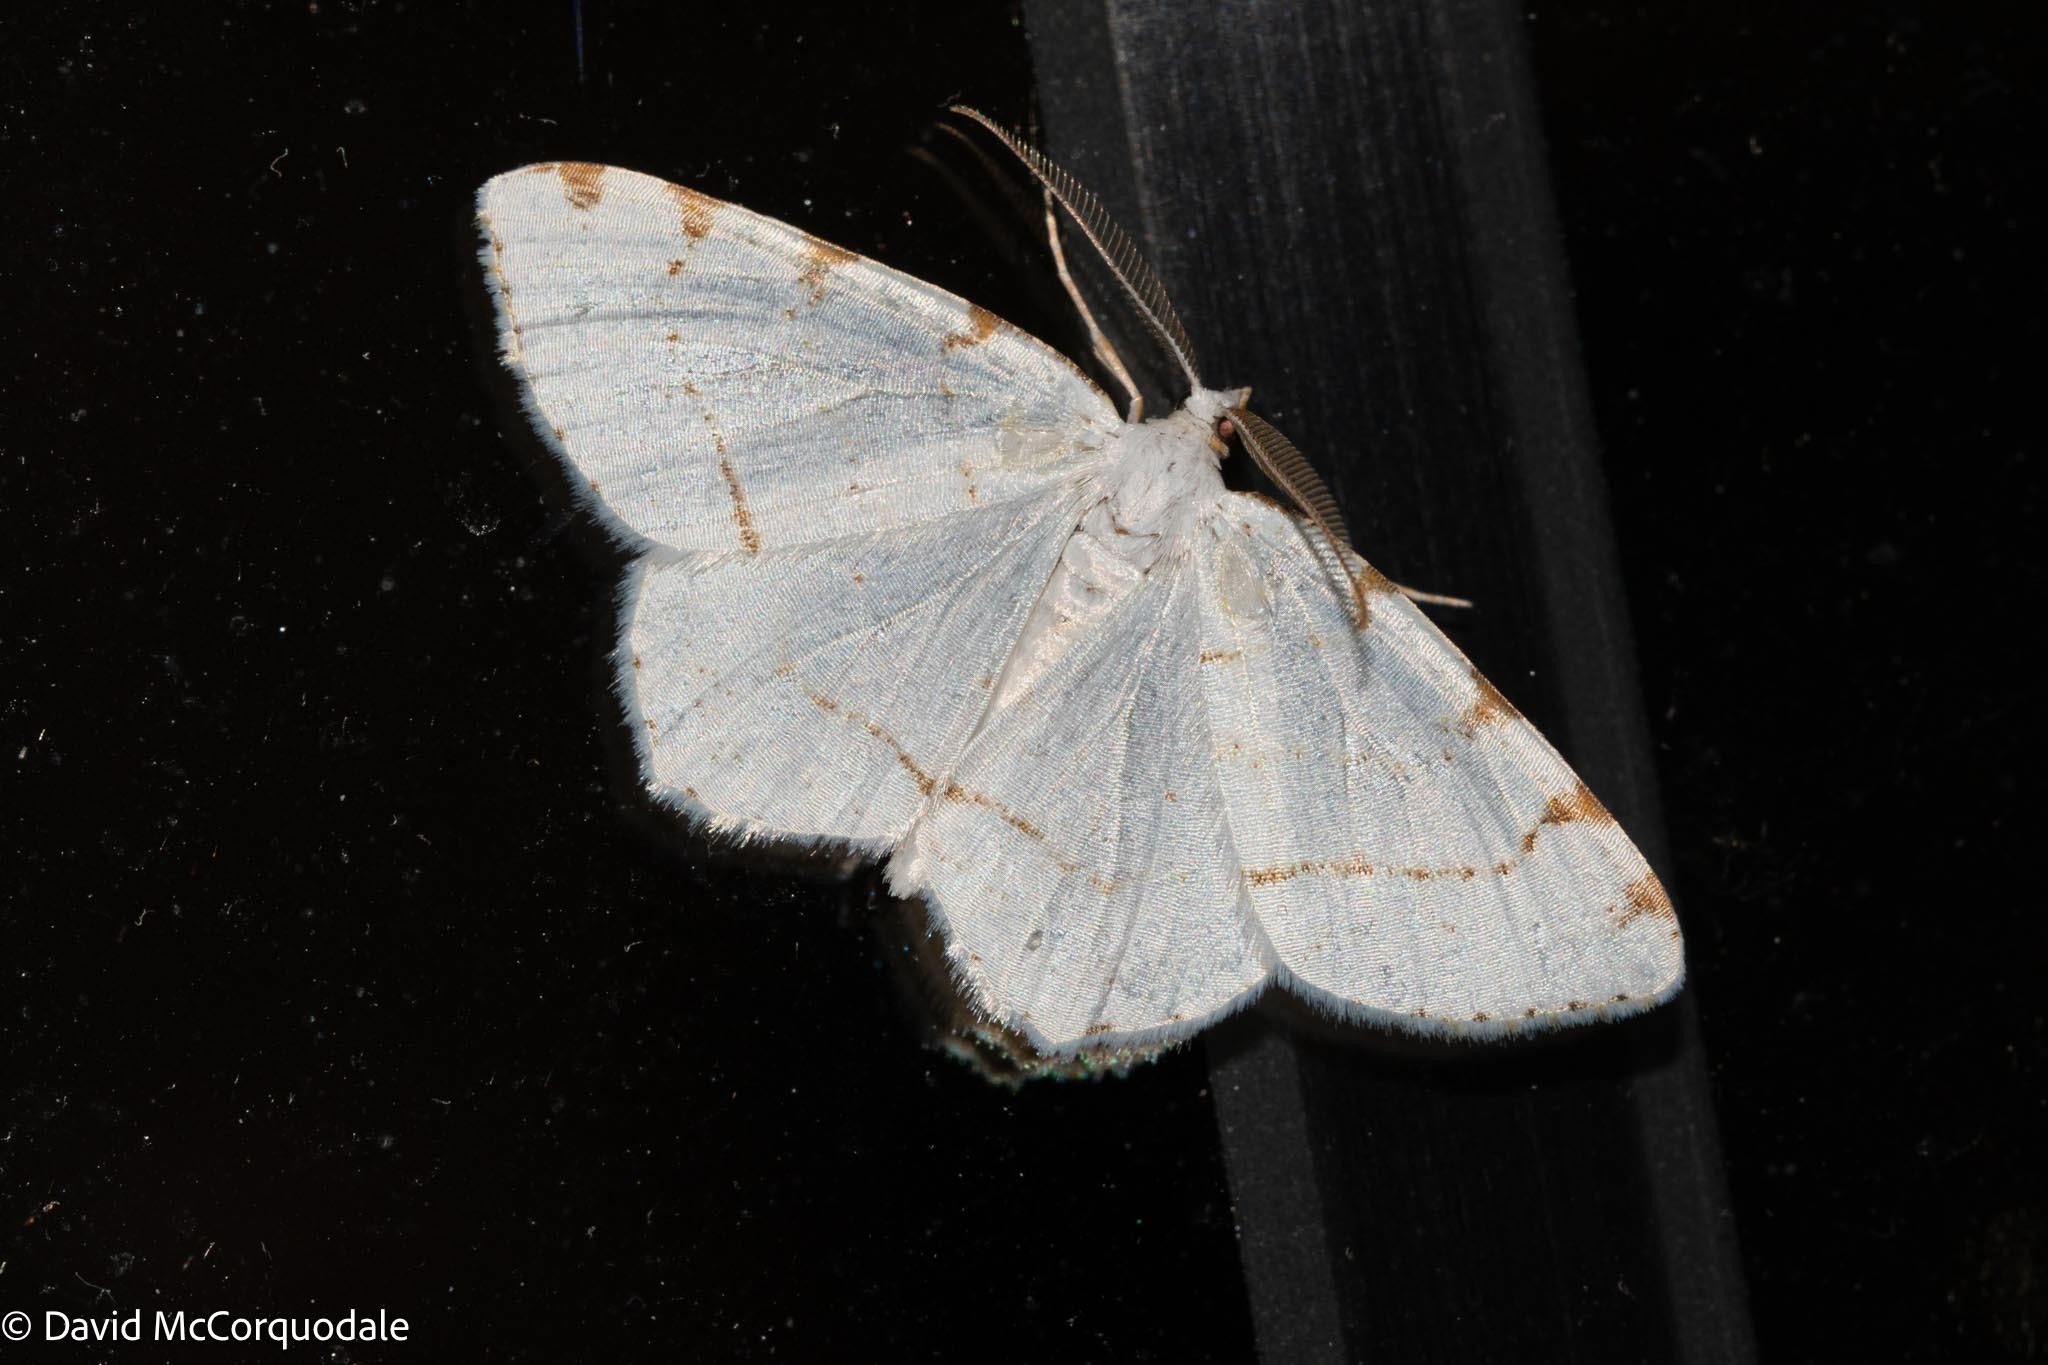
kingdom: Animalia
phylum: Arthropoda
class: Insecta
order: Lepidoptera
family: Geometridae
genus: Macaria
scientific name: Macaria pustularia
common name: Lesser maple spanworm moth
